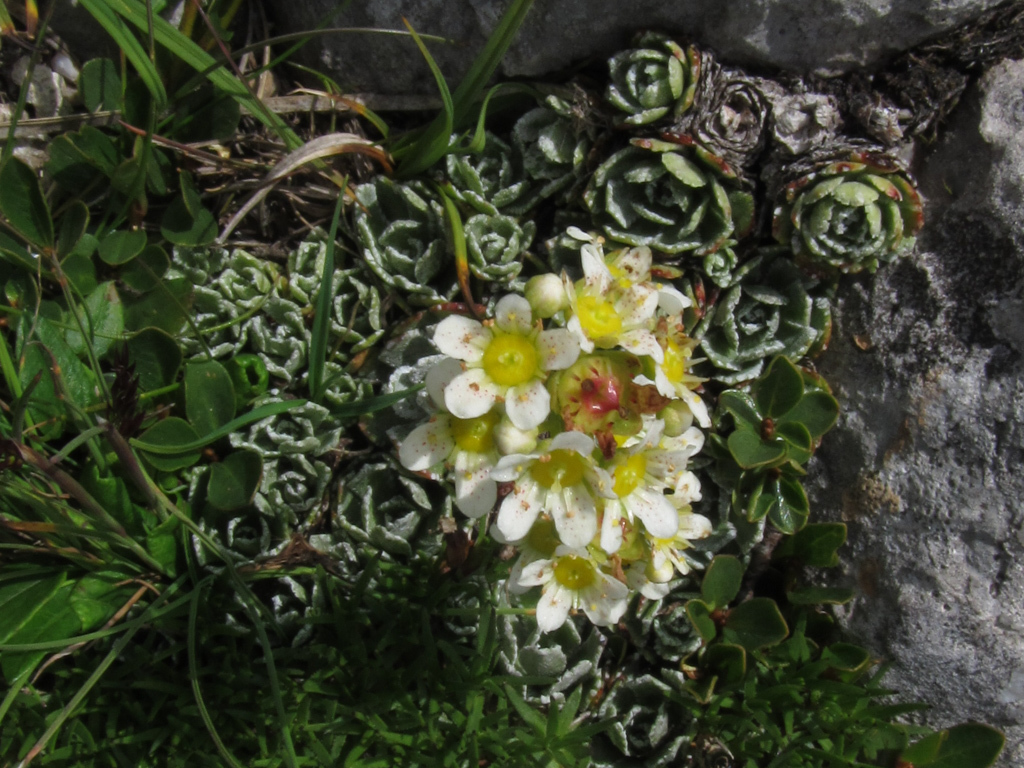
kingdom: Plantae
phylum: Tracheophyta
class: Magnoliopsida
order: Saxifragales
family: Saxifragaceae
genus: Saxifraga
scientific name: Saxifraga paniculata
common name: Livelong saxifrage
